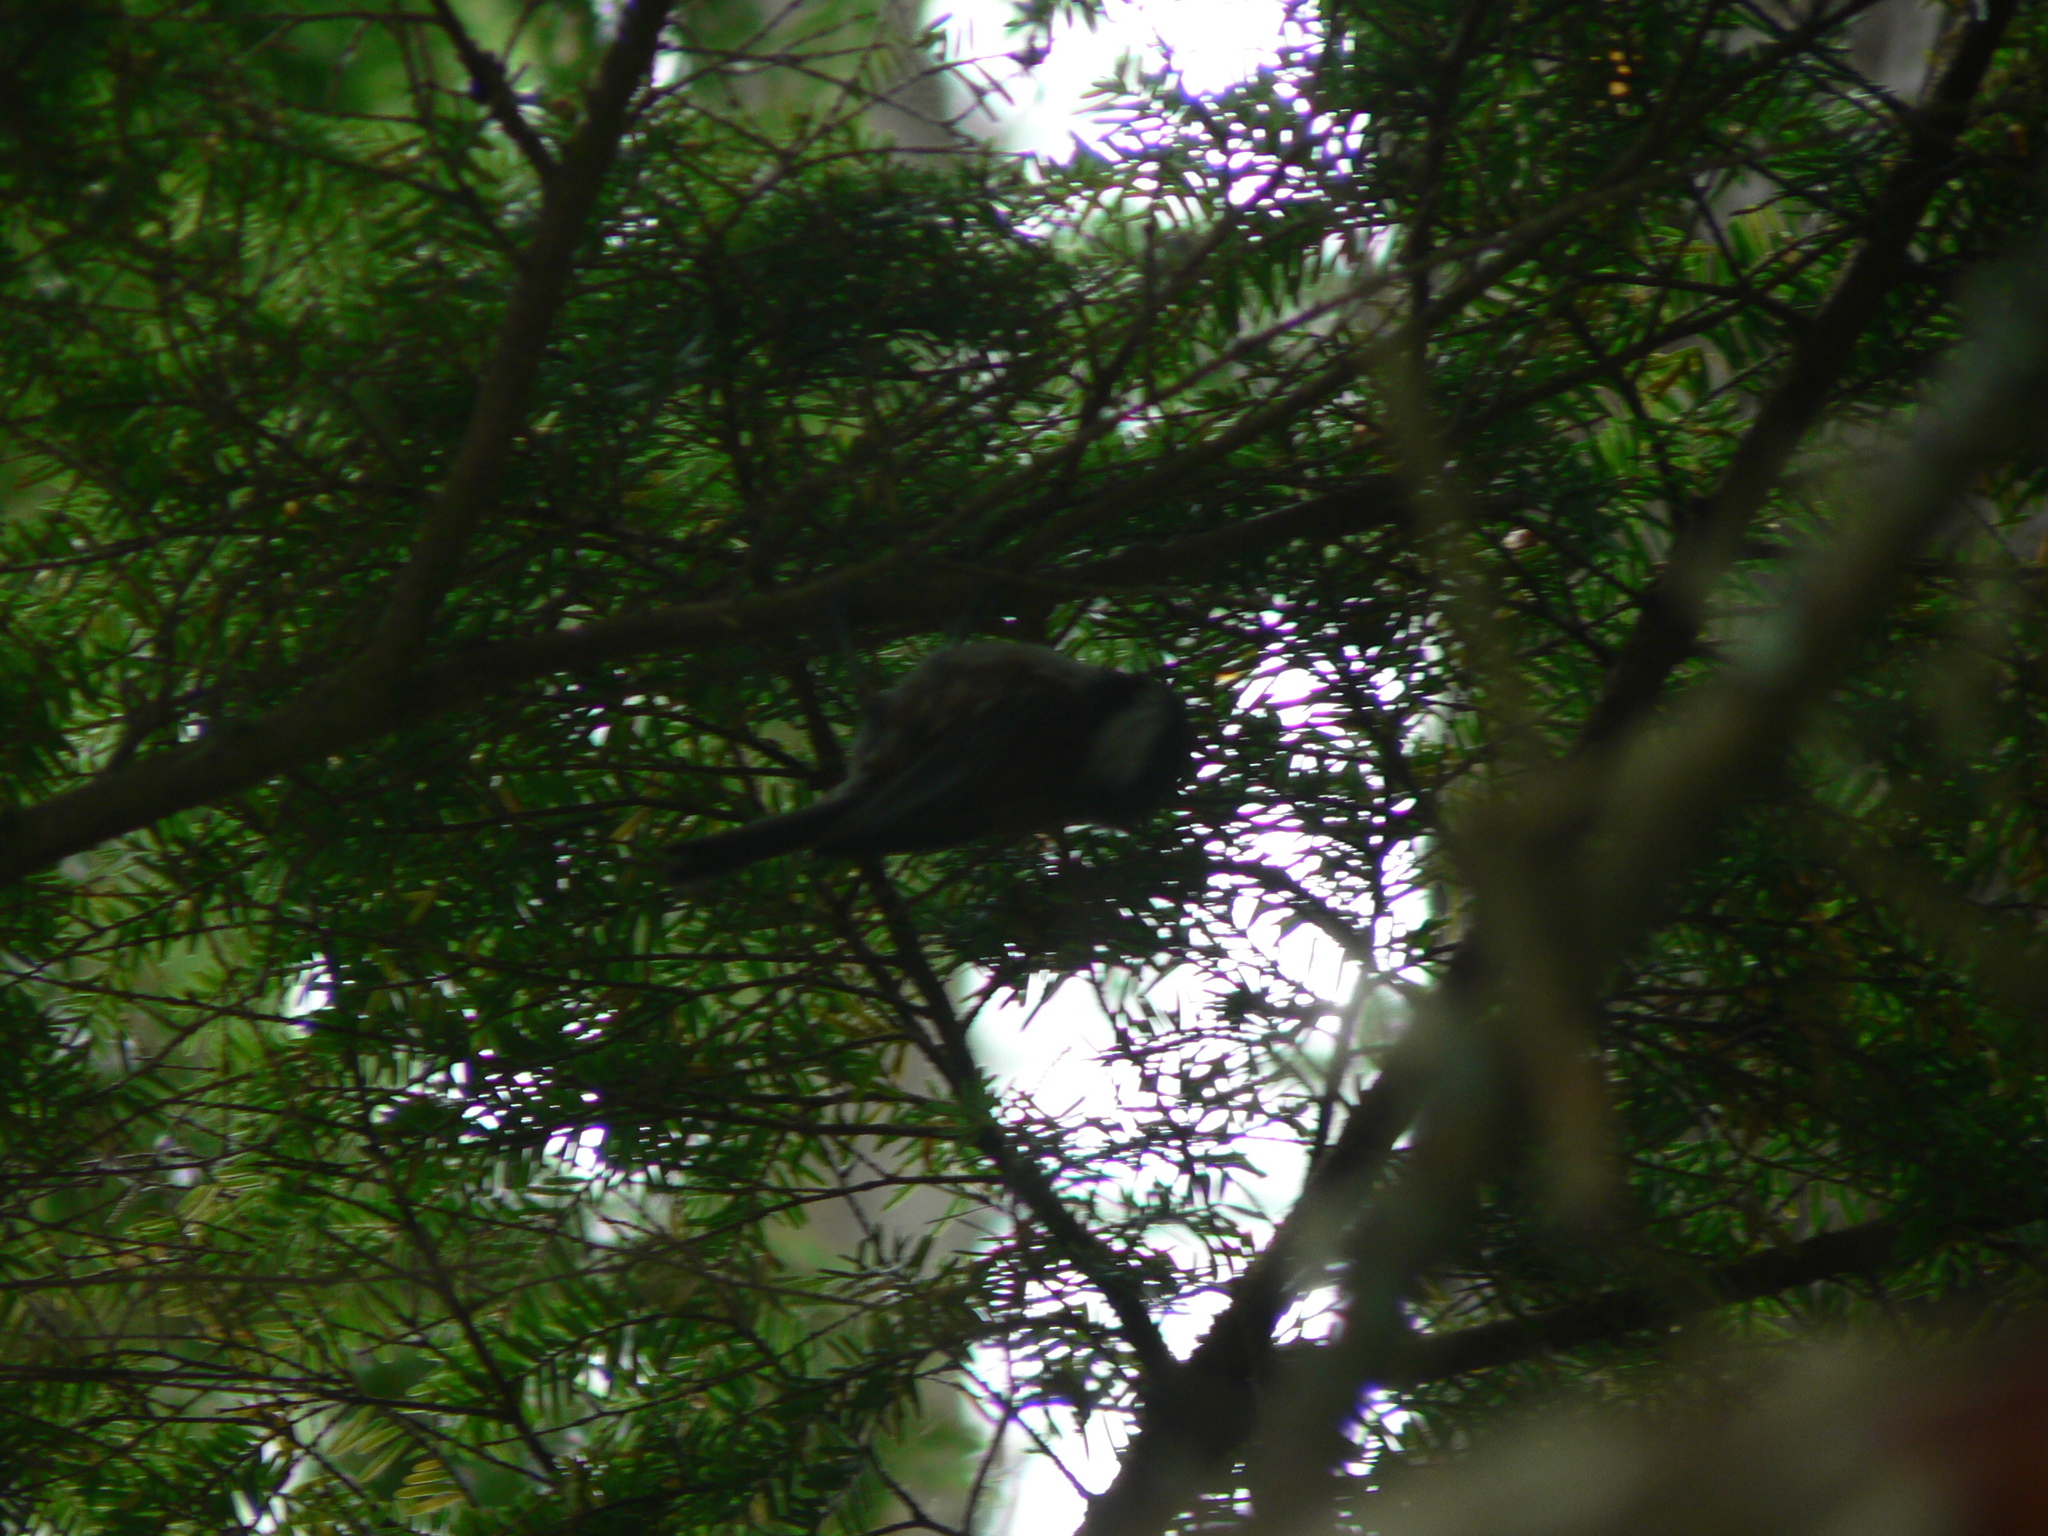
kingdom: Animalia
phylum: Chordata
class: Aves
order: Passeriformes
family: Paridae
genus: Poecile
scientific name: Poecile rufescens
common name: Chestnut-backed chickadee
